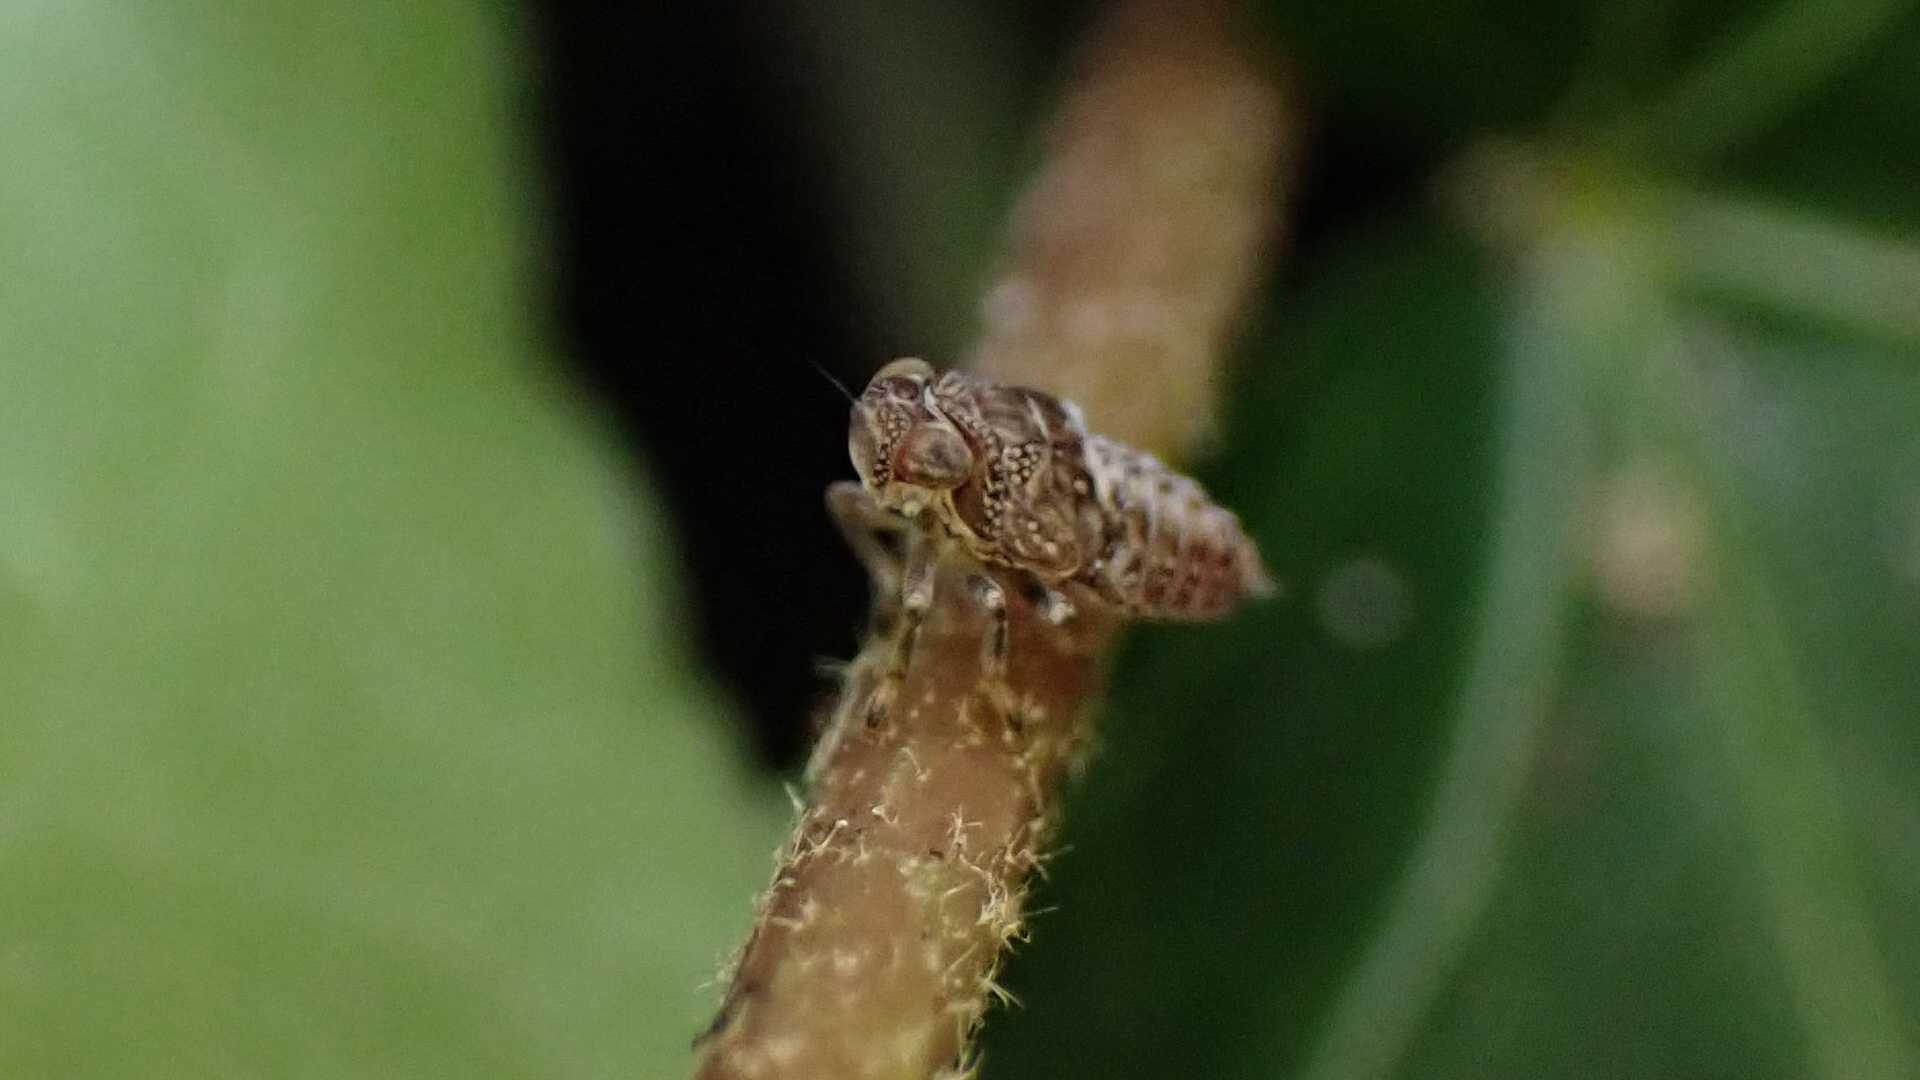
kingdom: Animalia
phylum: Arthropoda
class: Insecta
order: Hemiptera
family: Issidae
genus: Issus
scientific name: Issus coleoptratus
